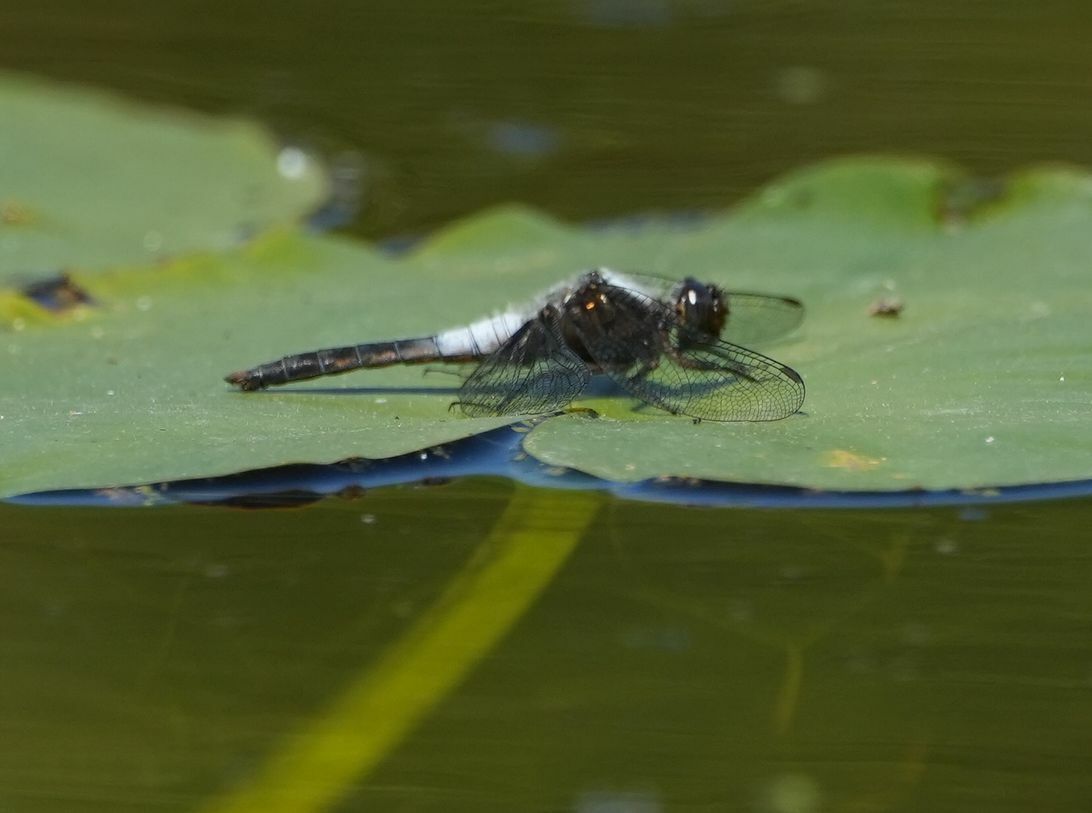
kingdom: Animalia
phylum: Arthropoda
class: Insecta
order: Odonata
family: Libellulidae
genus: Ladona
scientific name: Ladona julia
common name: Chalk-fronted corporal
